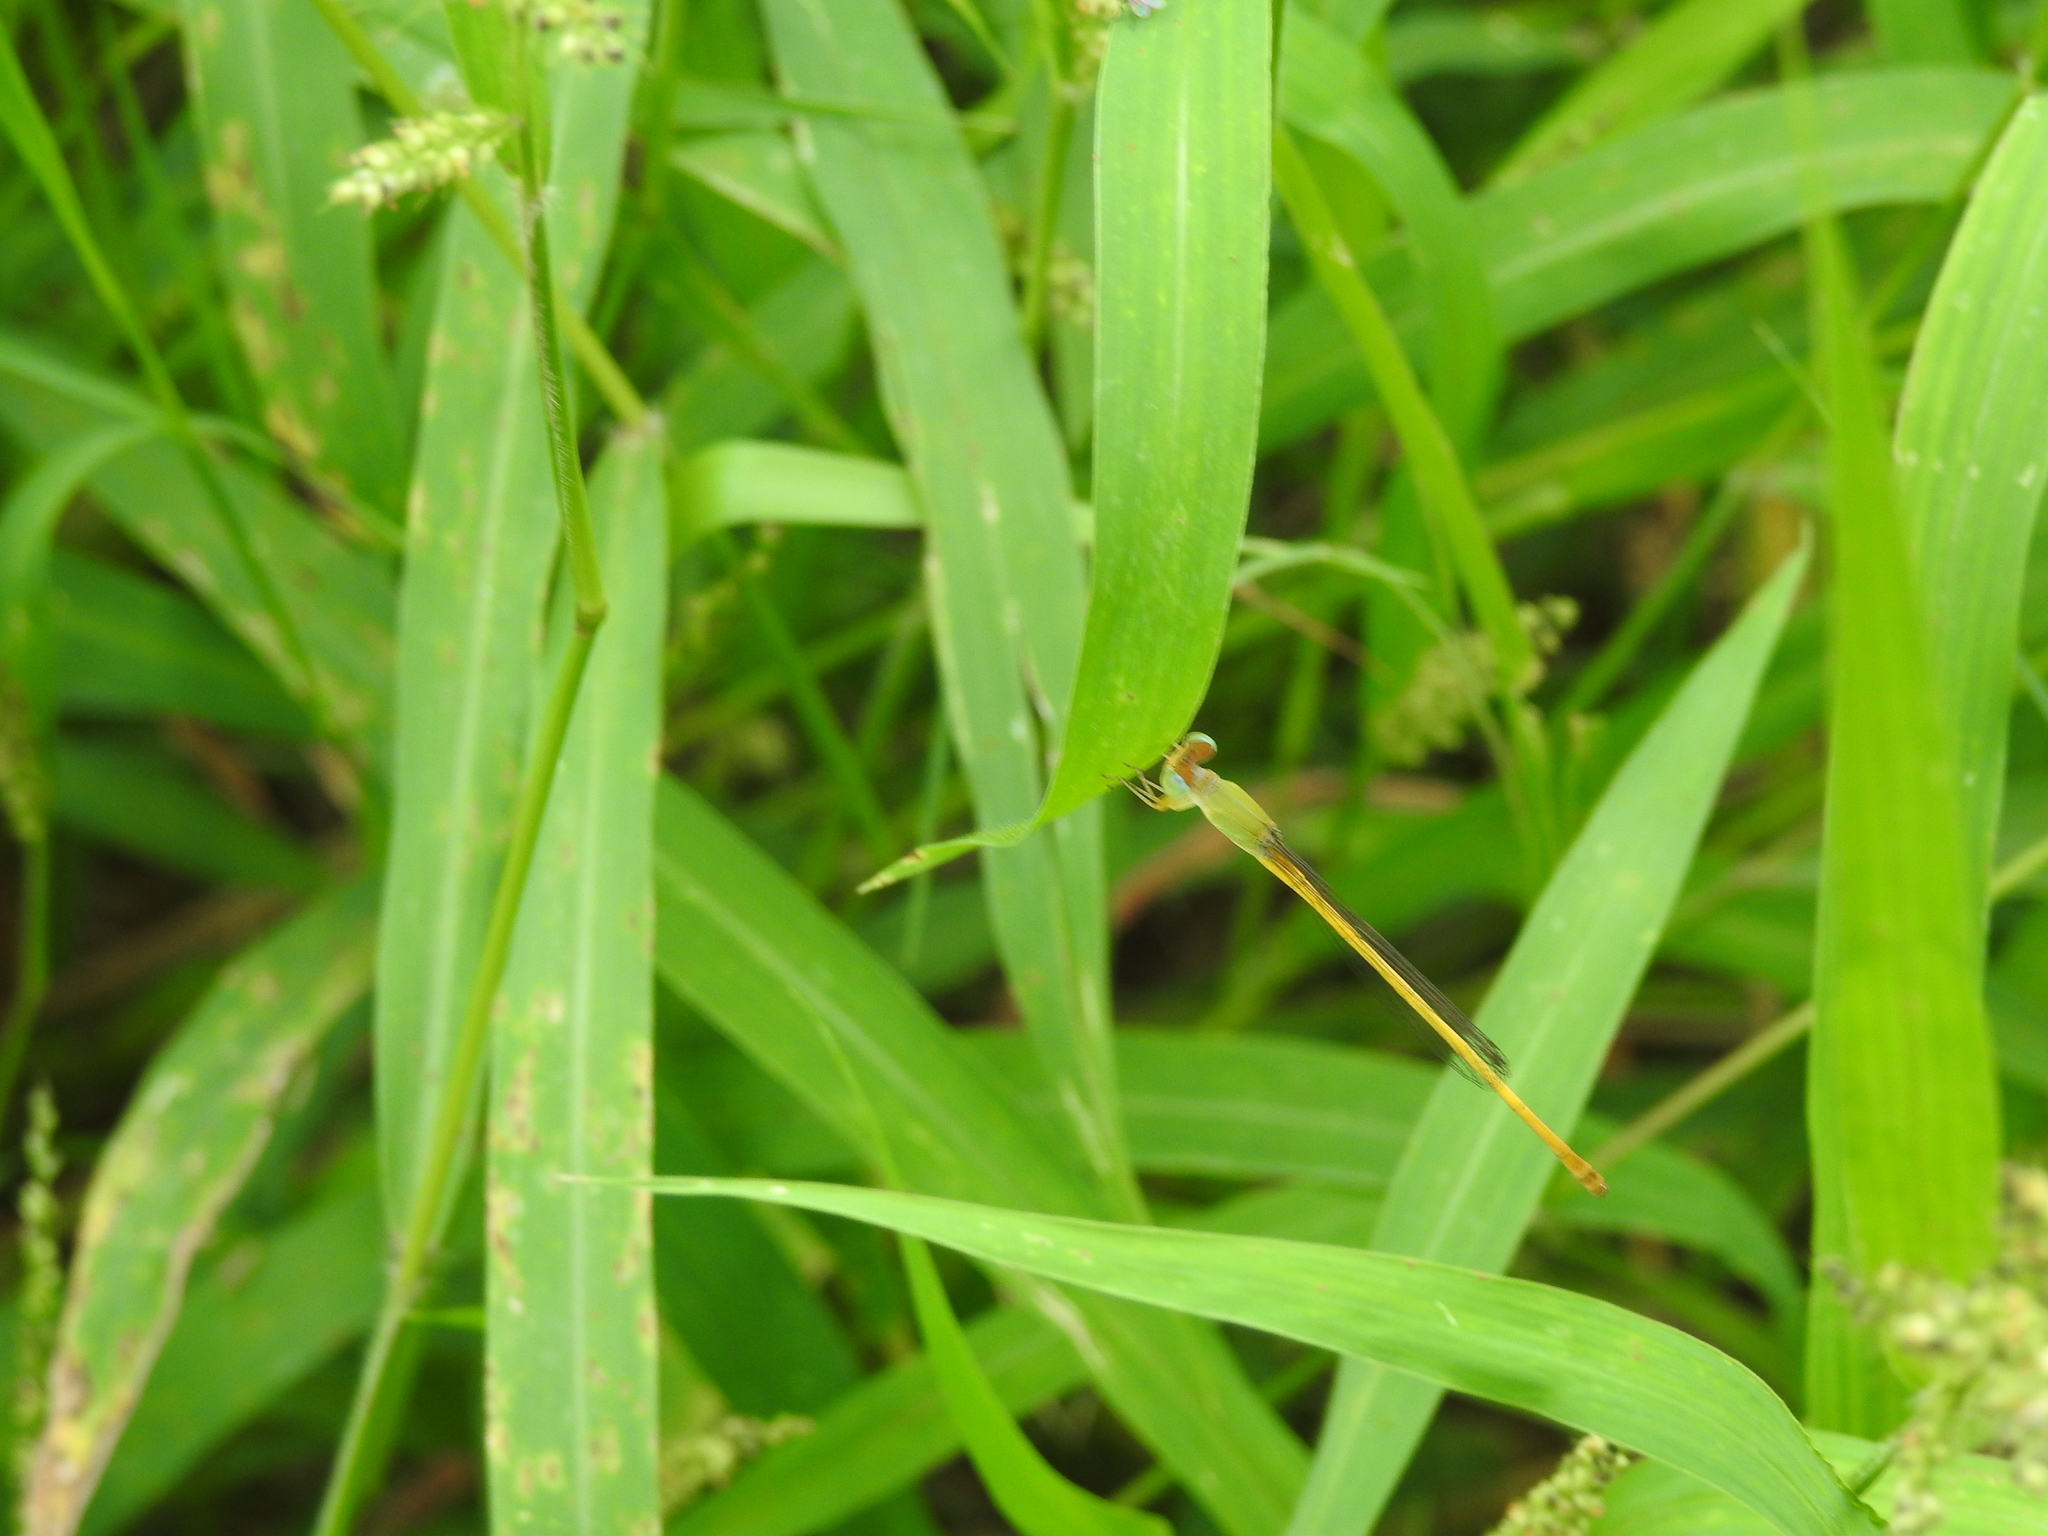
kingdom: Animalia
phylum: Arthropoda
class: Insecta
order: Odonata
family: Coenagrionidae
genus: Ceriagrion
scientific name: Ceriagrion coromandelianum
